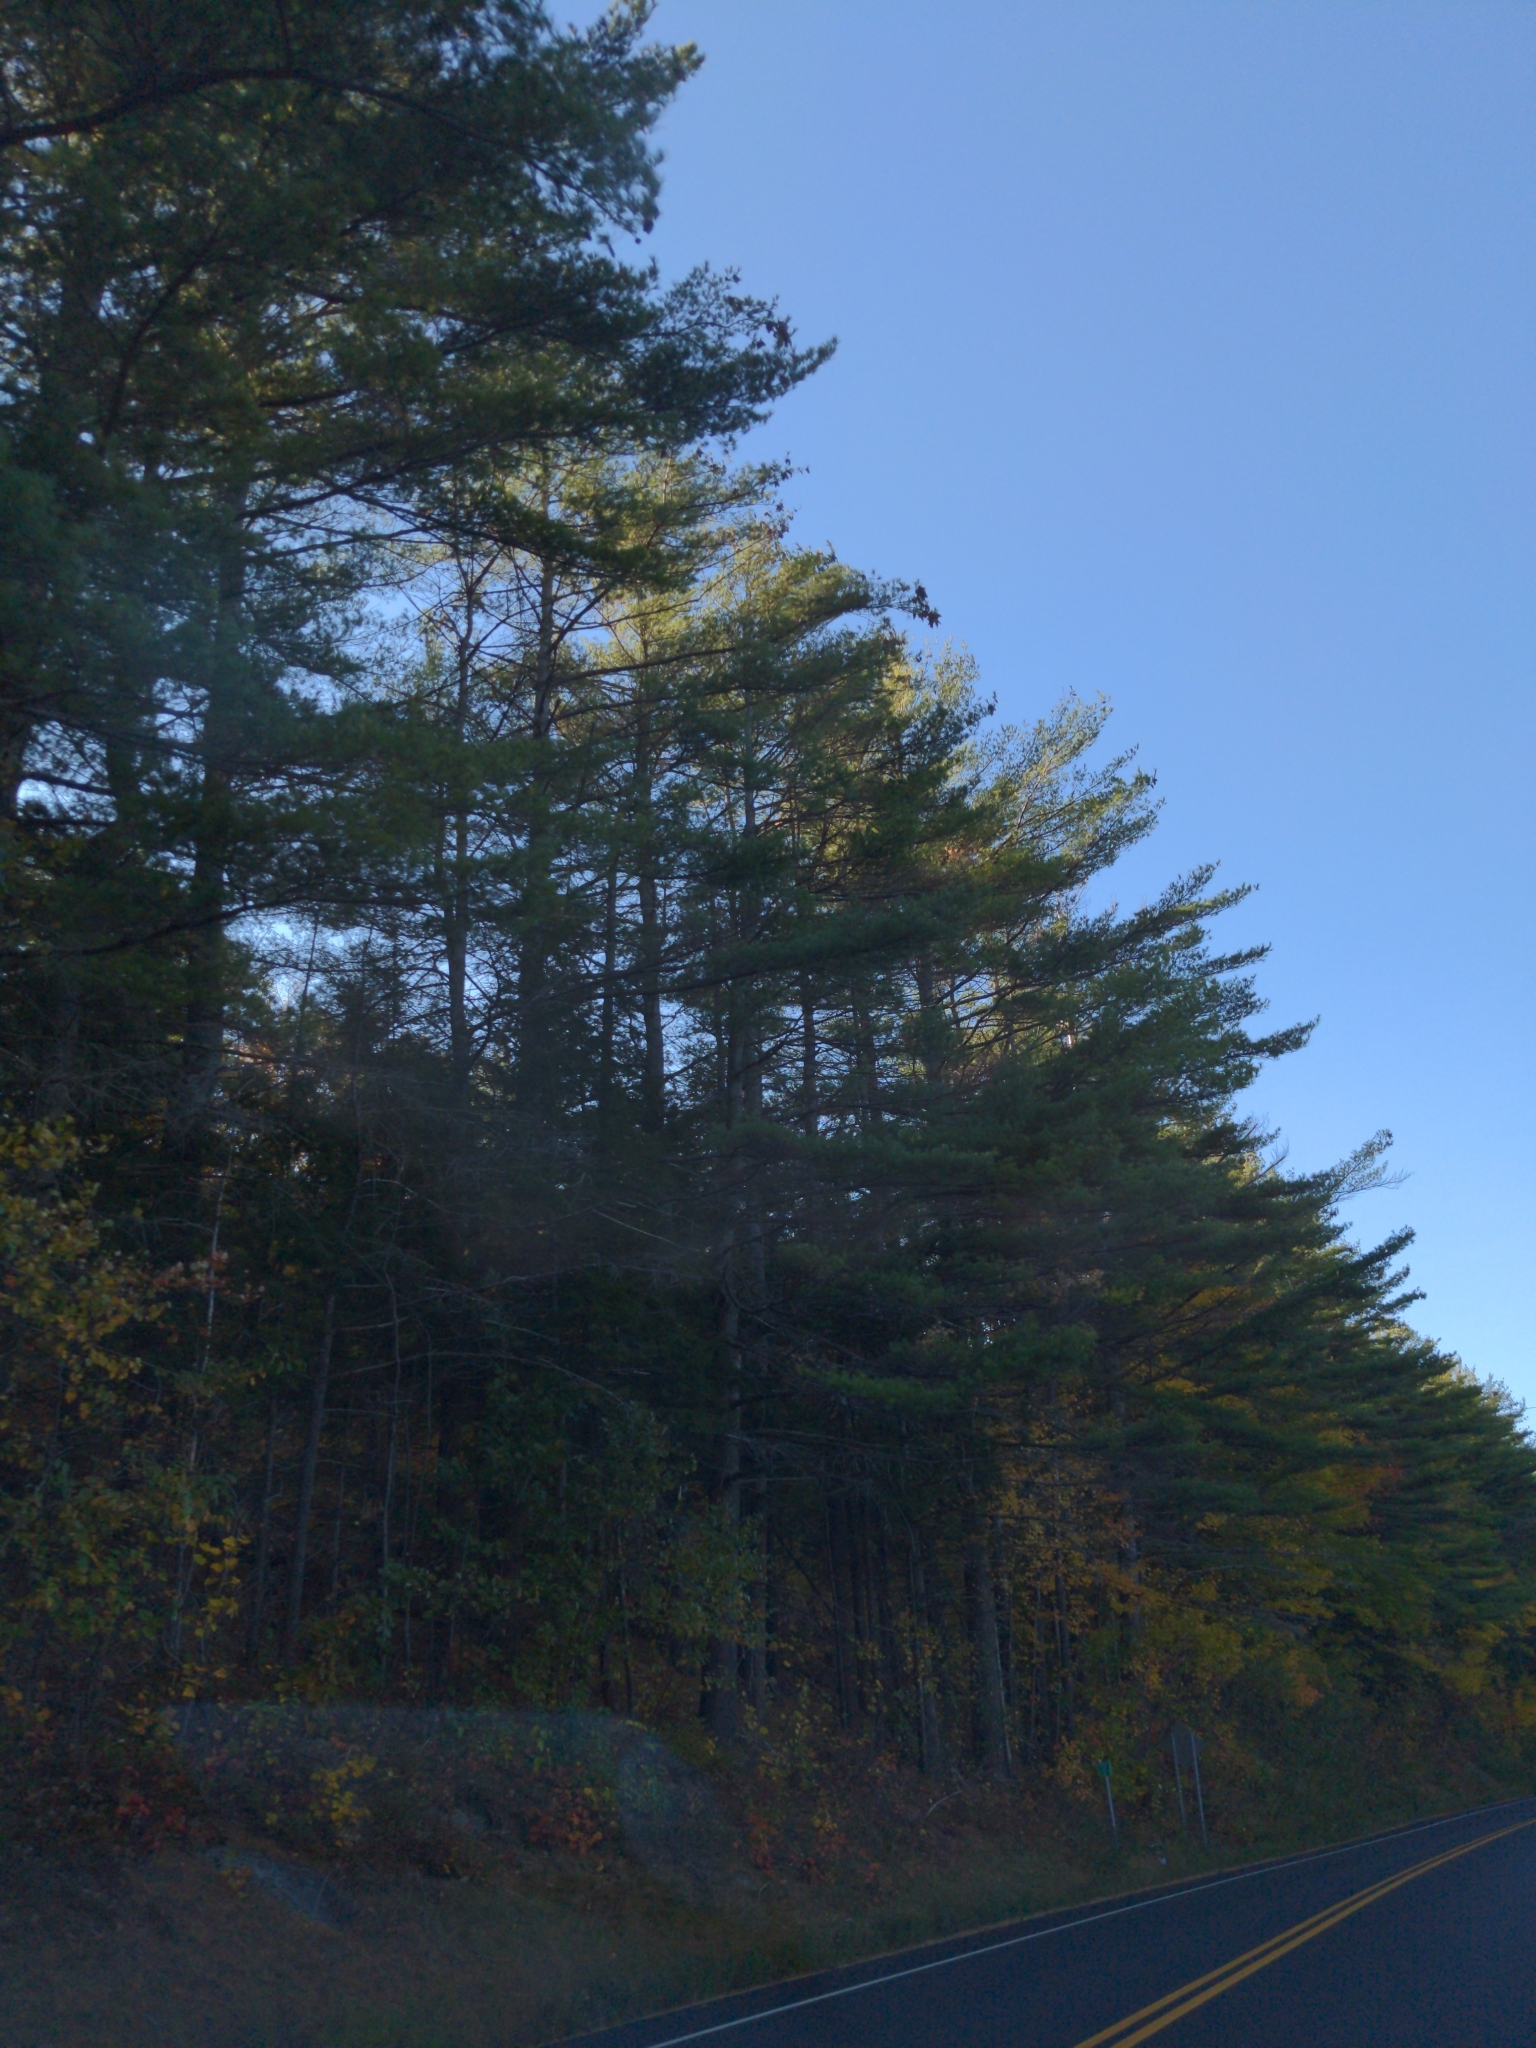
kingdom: Plantae
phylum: Tracheophyta
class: Pinopsida
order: Pinales
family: Pinaceae
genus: Pinus
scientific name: Pinus strobus
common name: Weymouth pine
